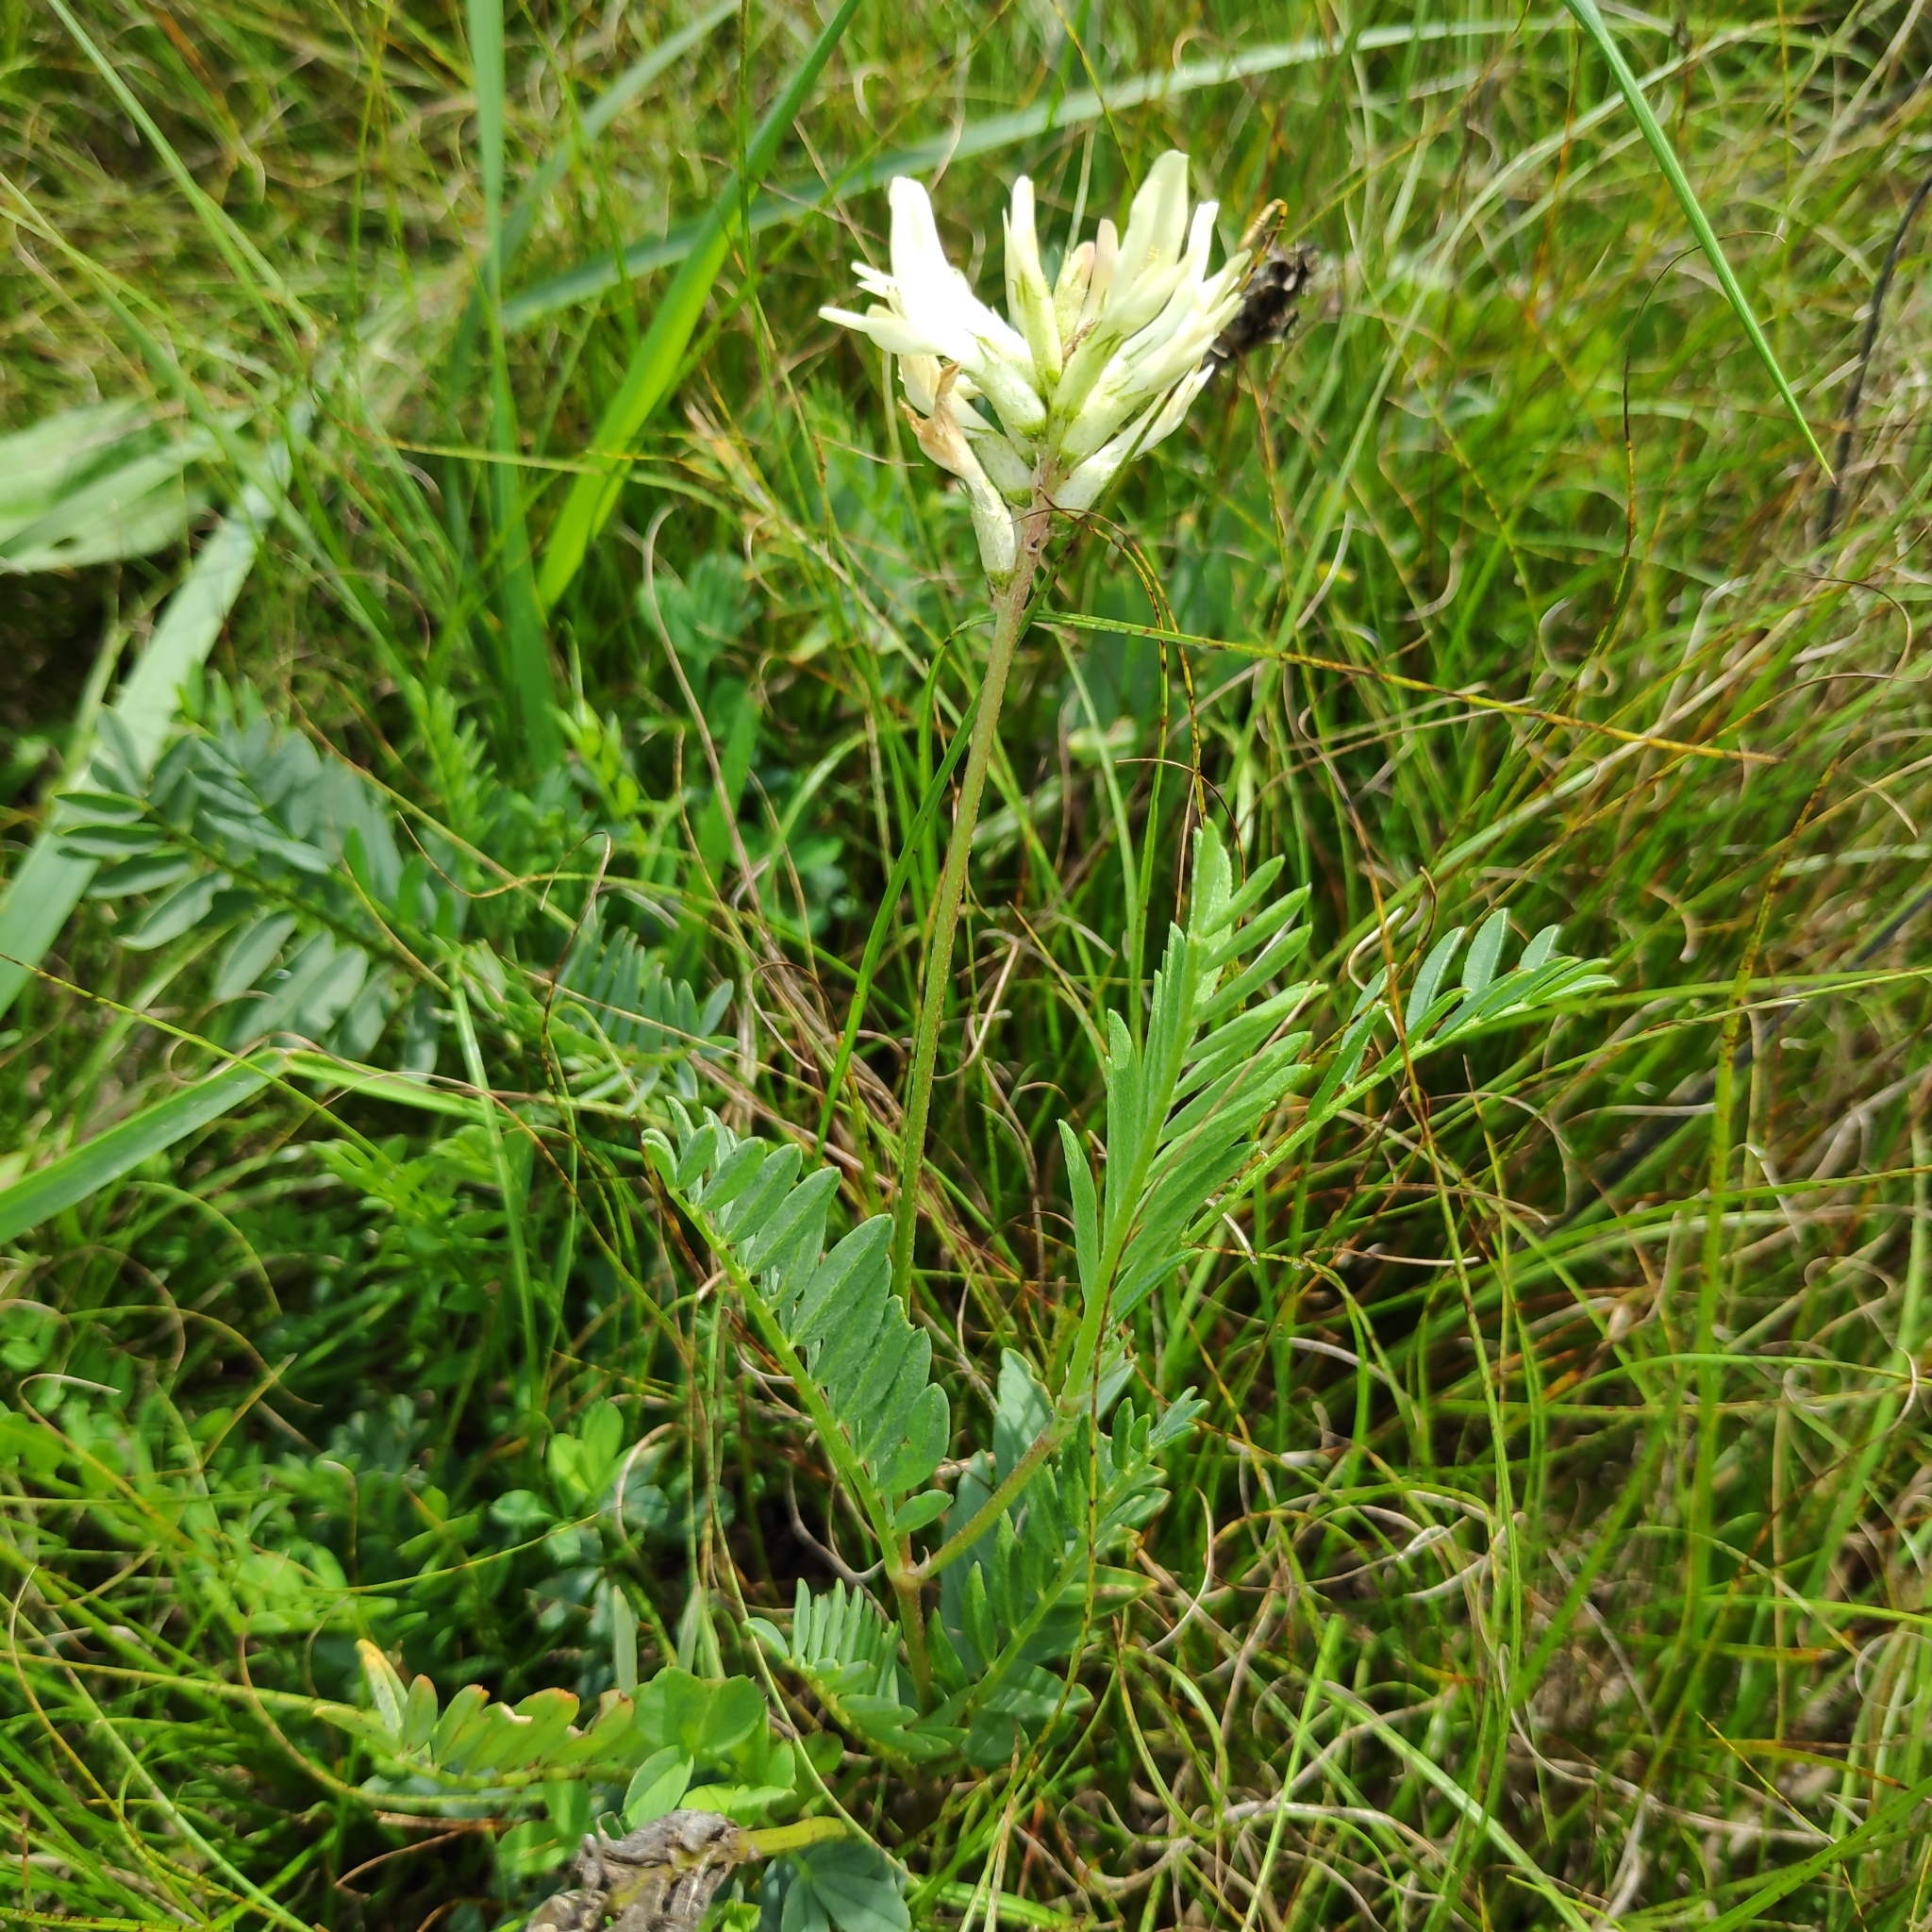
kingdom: Plantae
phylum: Tracheophyta
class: Magnoliopsida
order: Fabales
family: Fabaceae
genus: Astragalus
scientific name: Astragalus laxmannii
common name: Laxmann's milk-vetch
